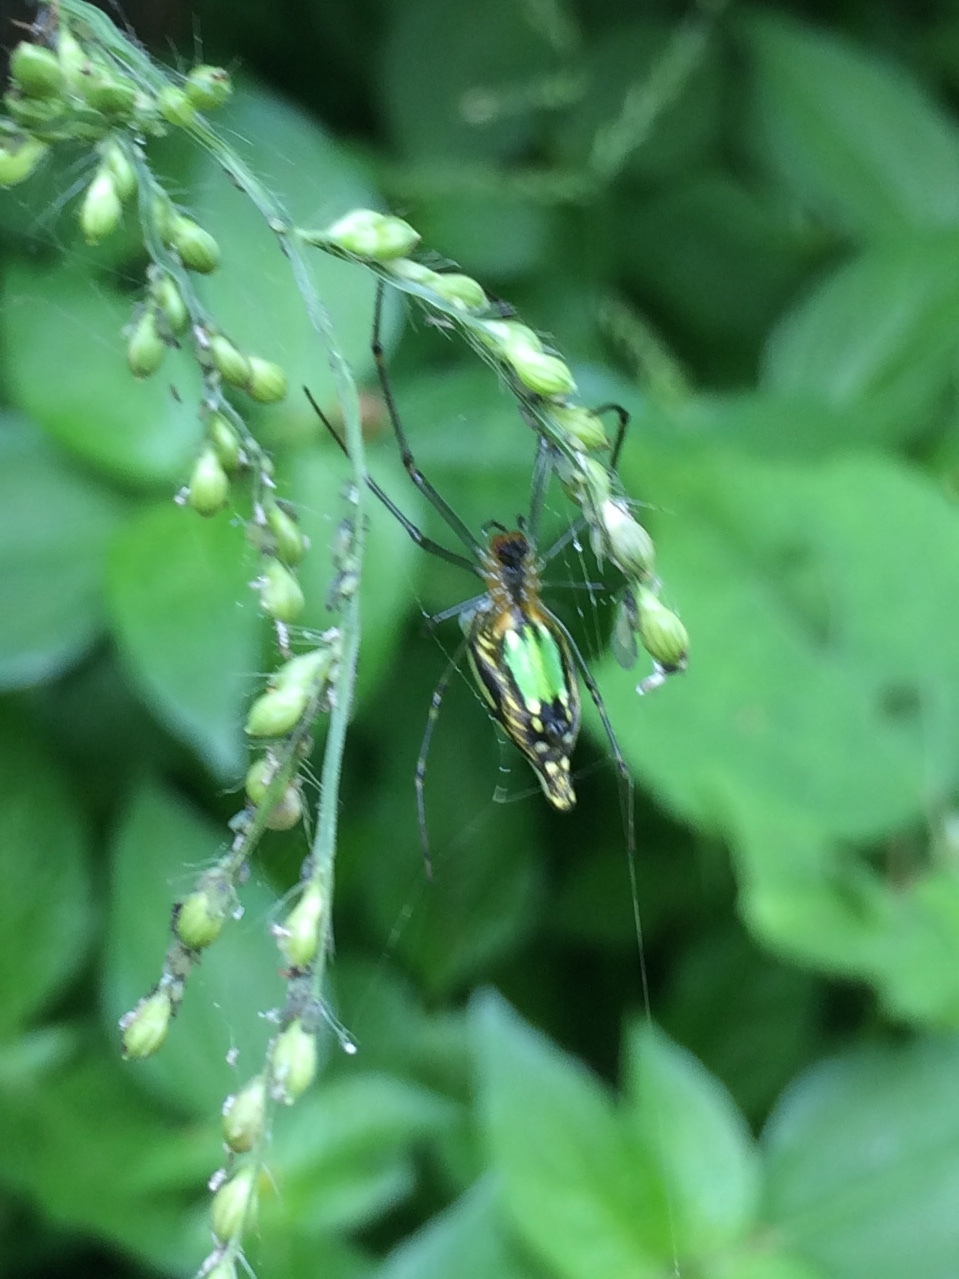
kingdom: Animalia
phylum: Arthropoda
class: Arachnida
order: Araneae
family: Tetragnathidae
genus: Leucauge
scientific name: Leucauge decorata
